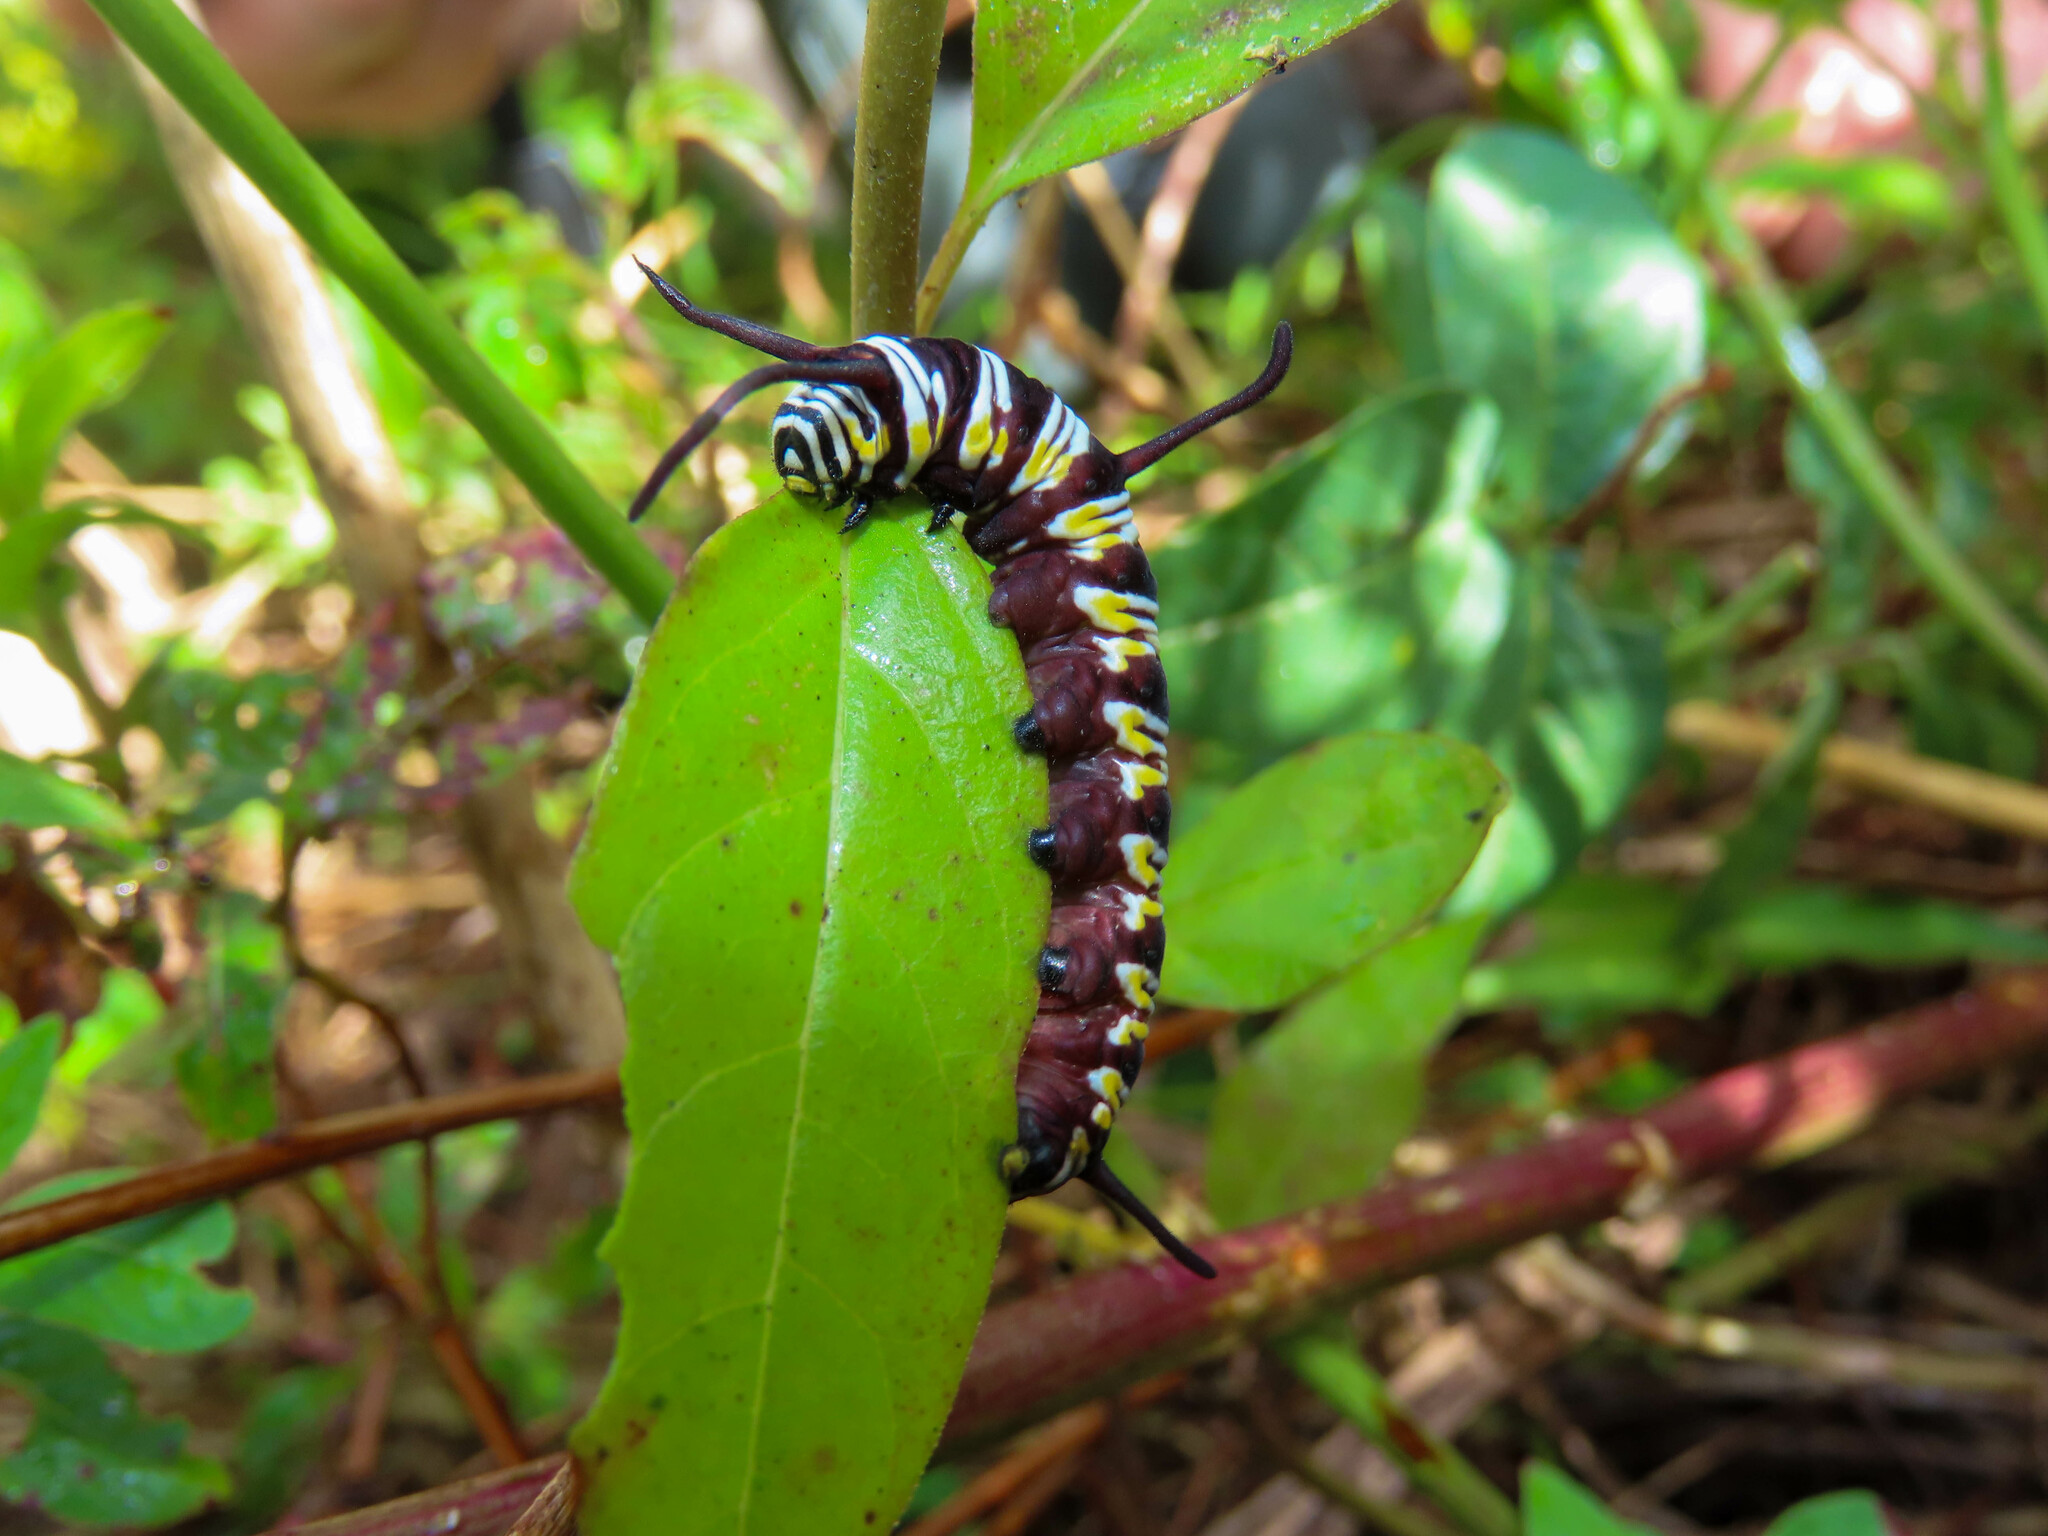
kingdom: Animalia
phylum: Arthropoda
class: Insecta
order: Lepidoptera
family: Nymphalidae
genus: Danaus
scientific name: Danaus gilippus
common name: Queen
